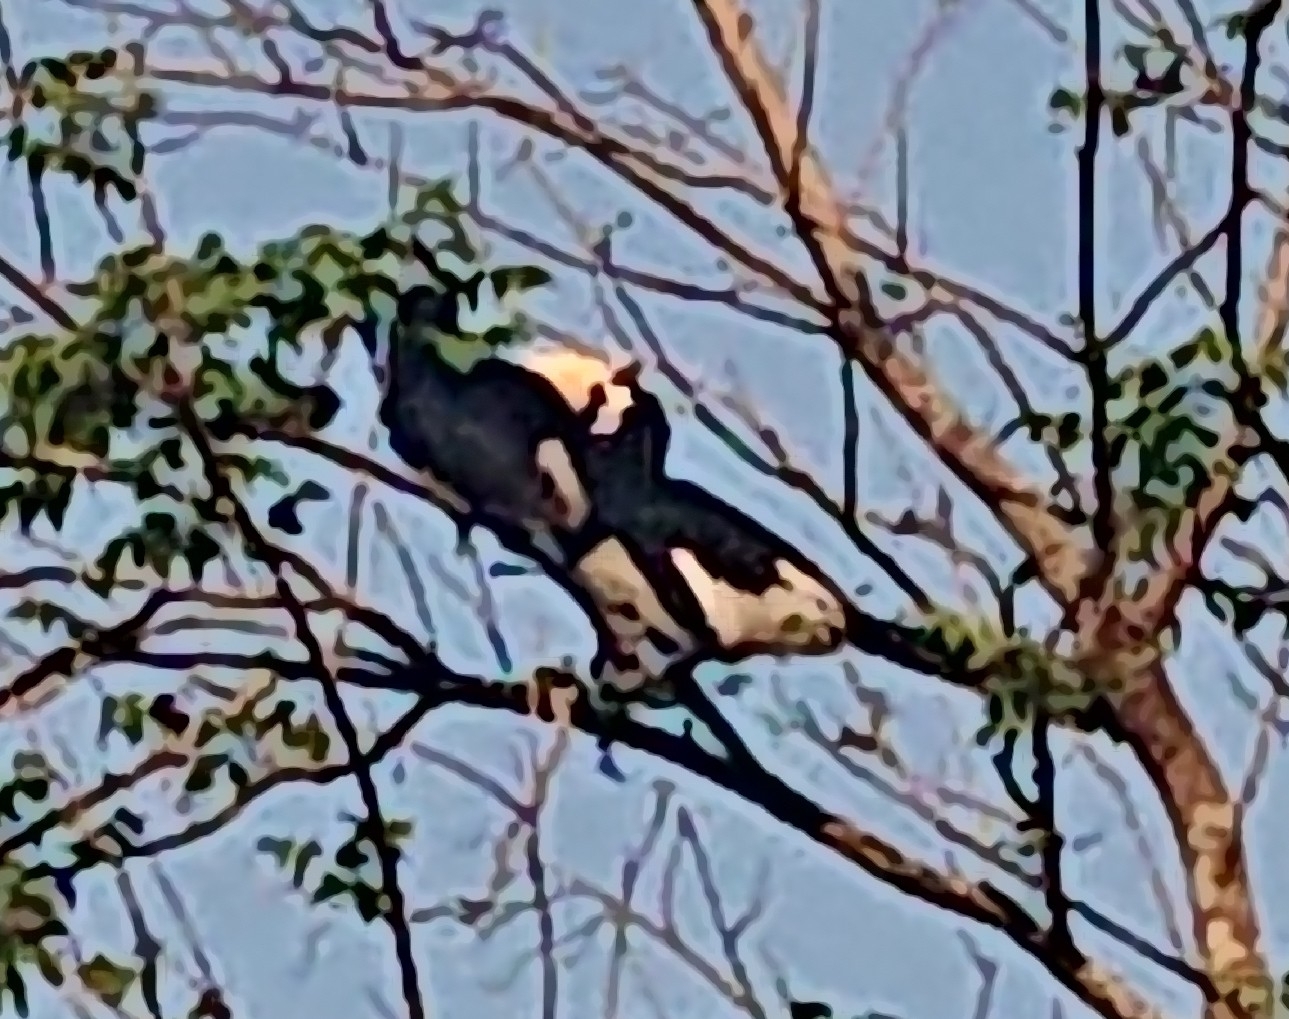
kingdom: Animalia
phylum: Chordata
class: Aves
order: Bucerotiformes
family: Bucerotidae
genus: Anthracoceros
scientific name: Anthracoceros albirostris
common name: Oriental pied-hornbill
